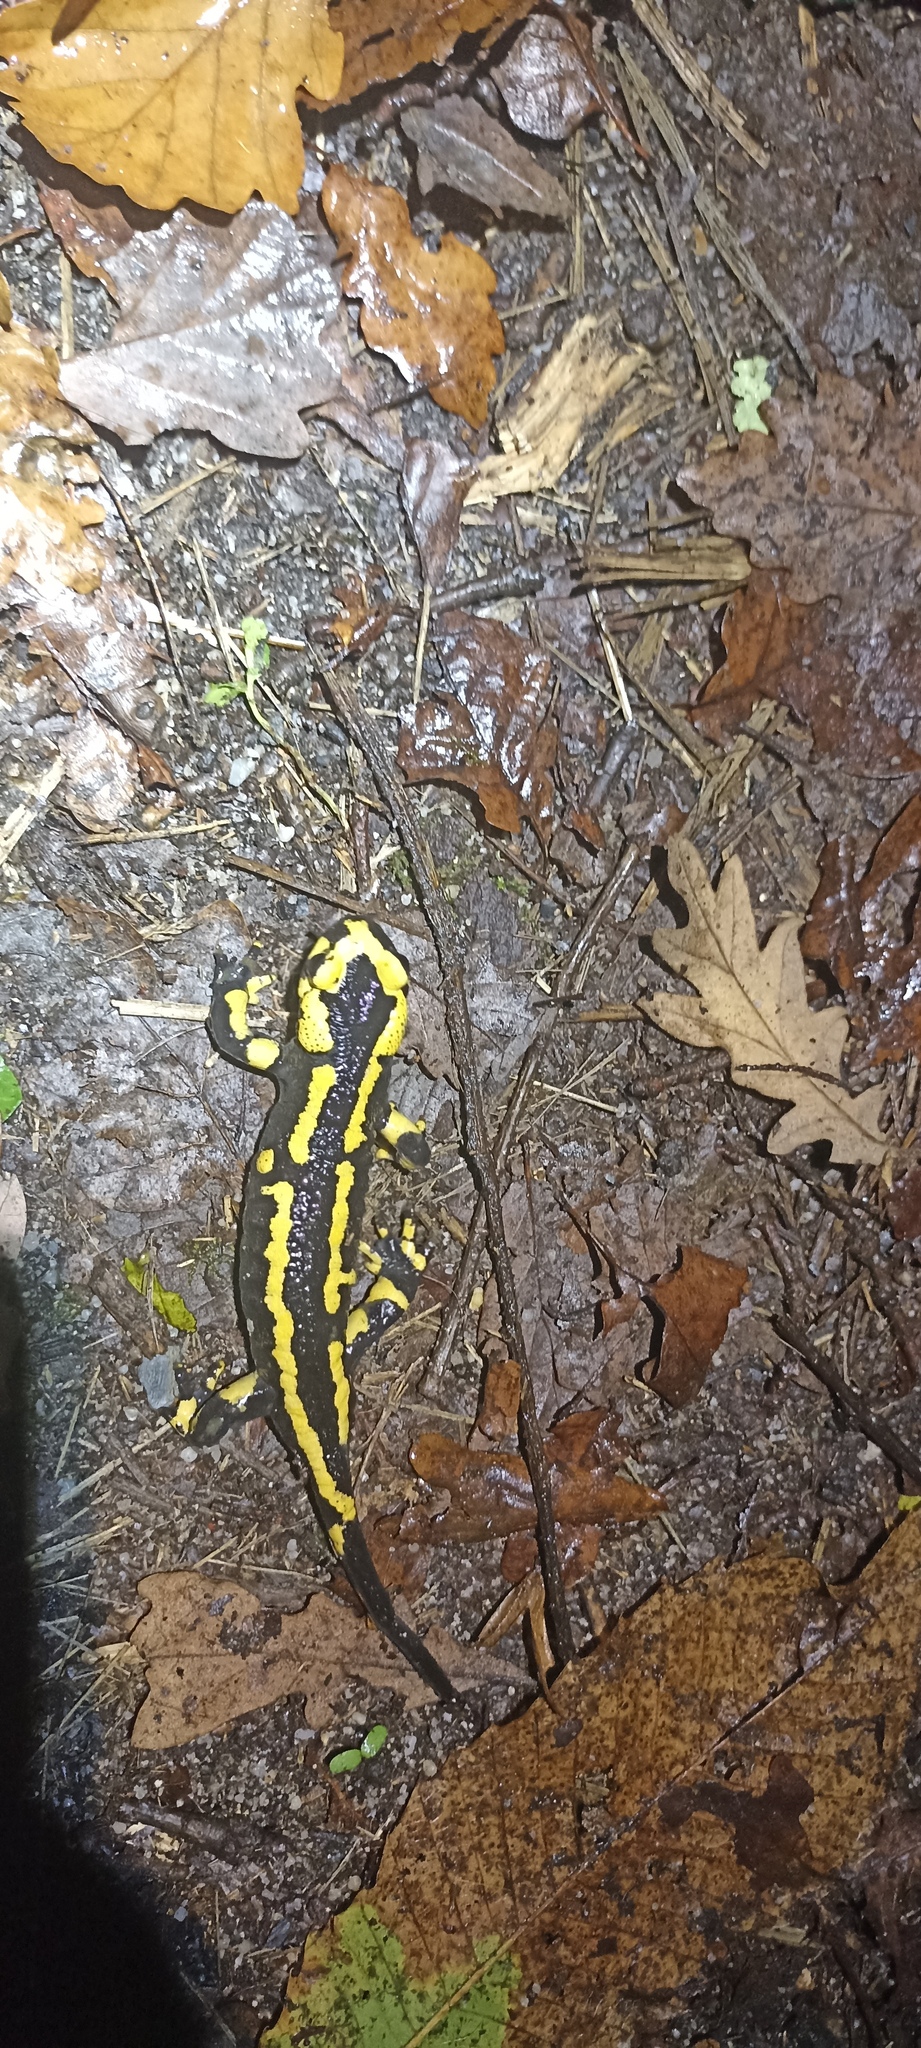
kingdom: Animalia
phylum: Chordata
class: Amphibia
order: Caudata
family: Salamandridae
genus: Salamandra
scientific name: Salamandra salamandra
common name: Fire salamander
